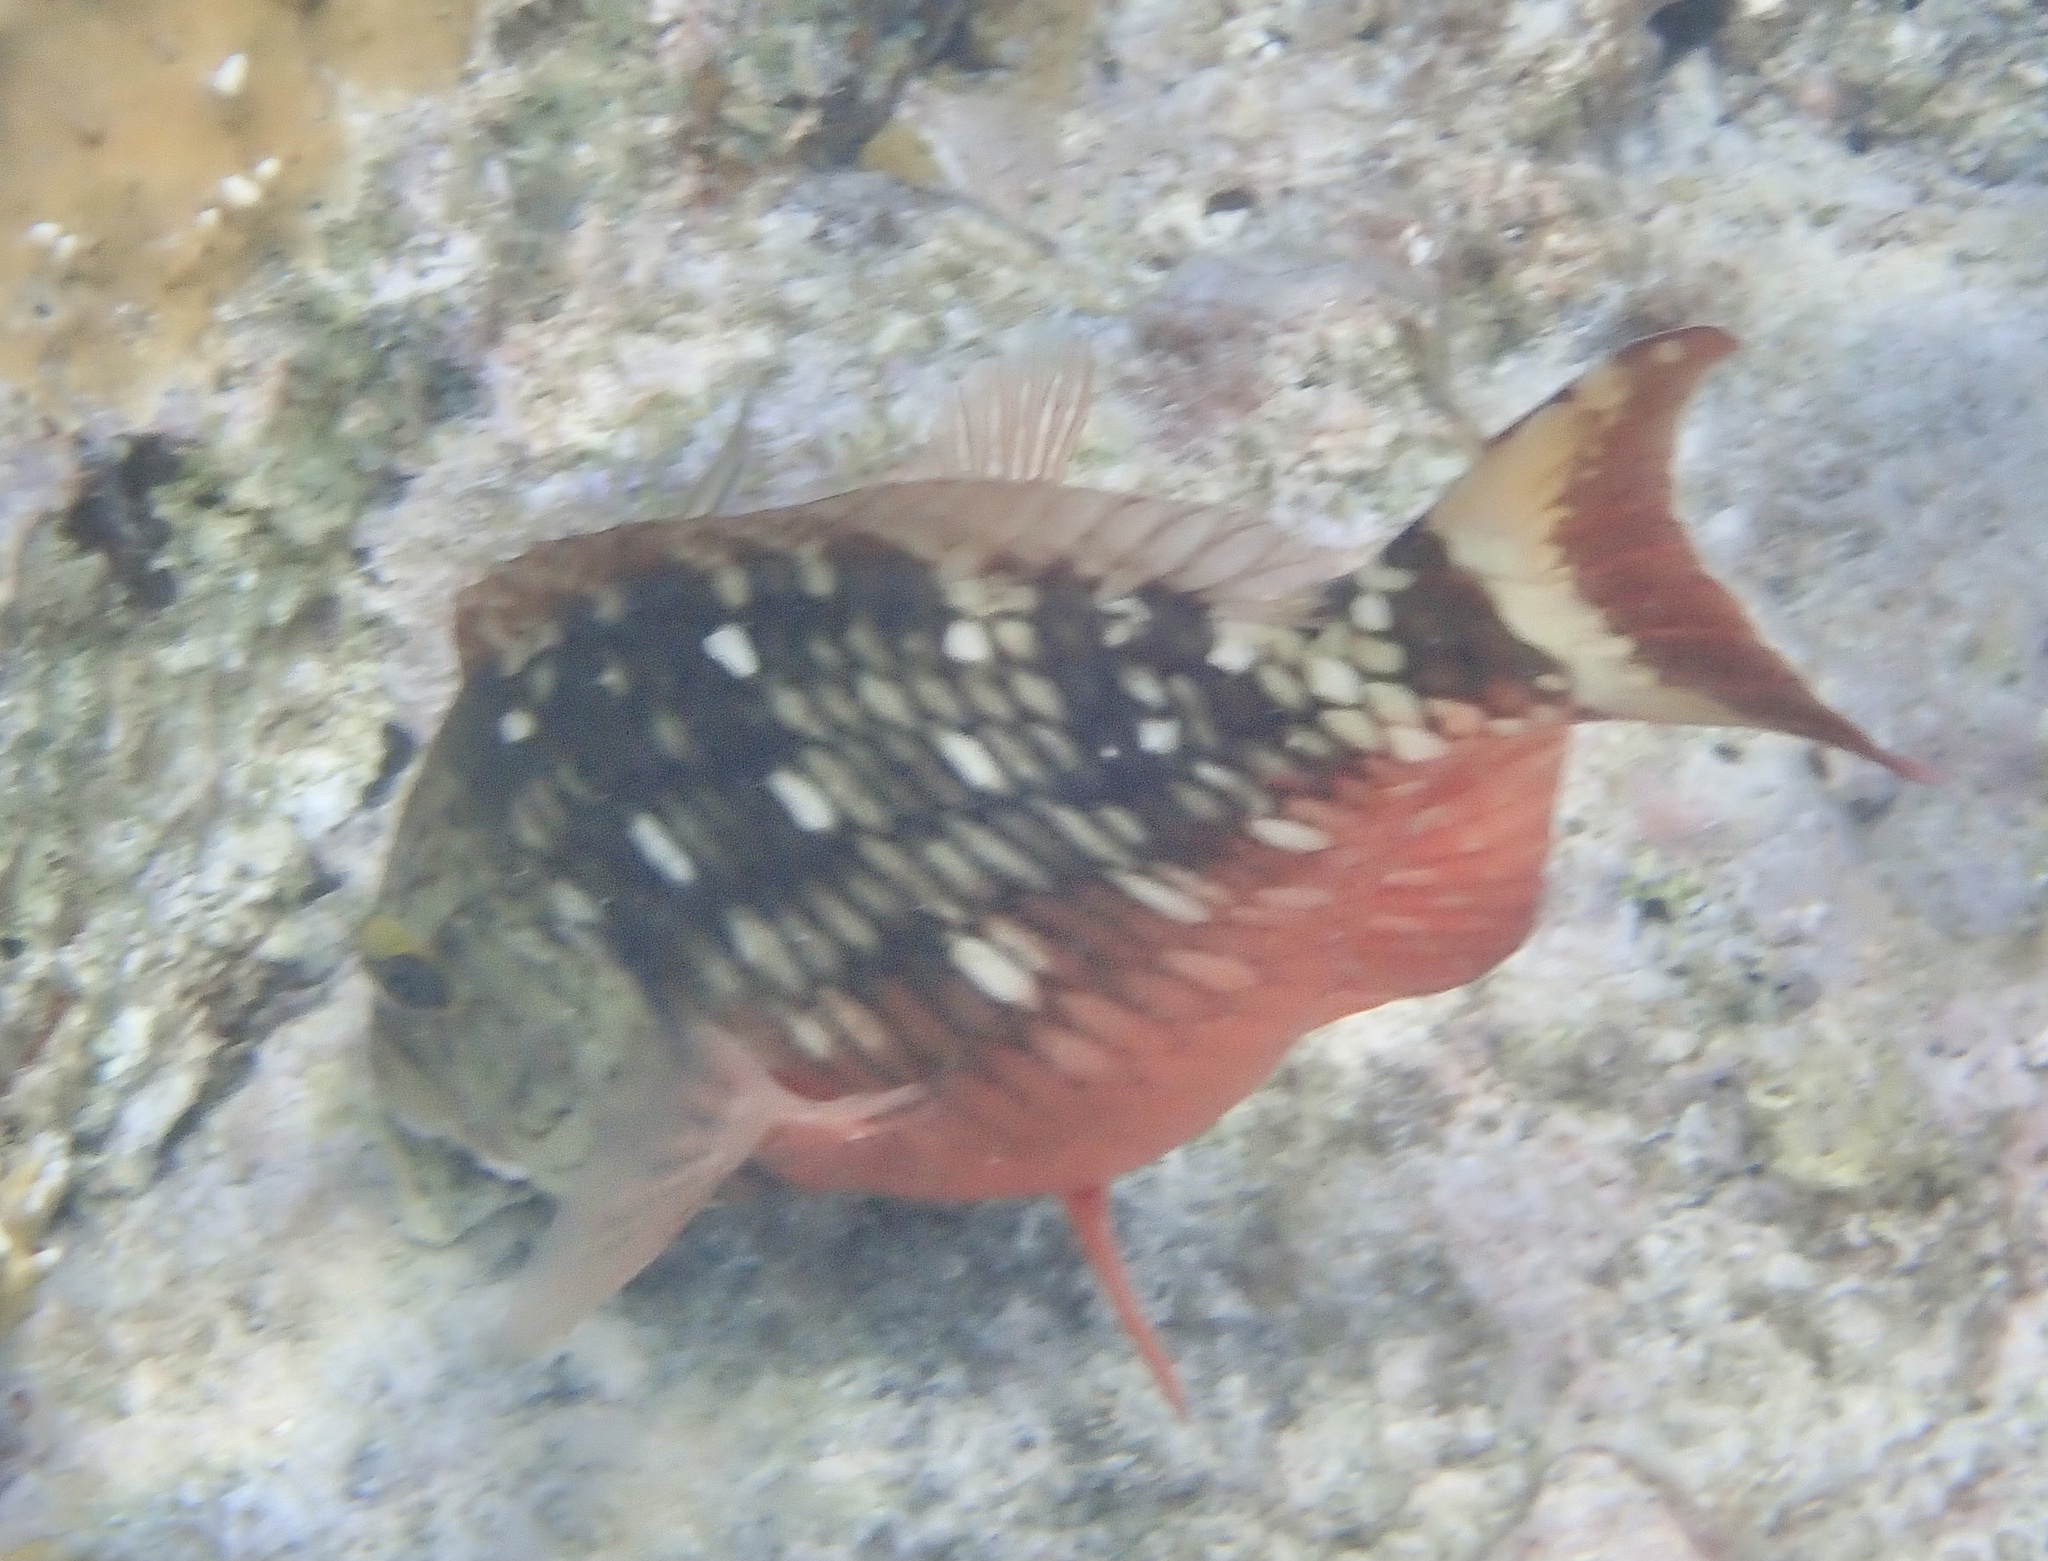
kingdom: Animalia
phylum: Chordata
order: Perciformes
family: Scaridae
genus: Sparisoma
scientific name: Sparisoma viride
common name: Stoplight parrotfish
